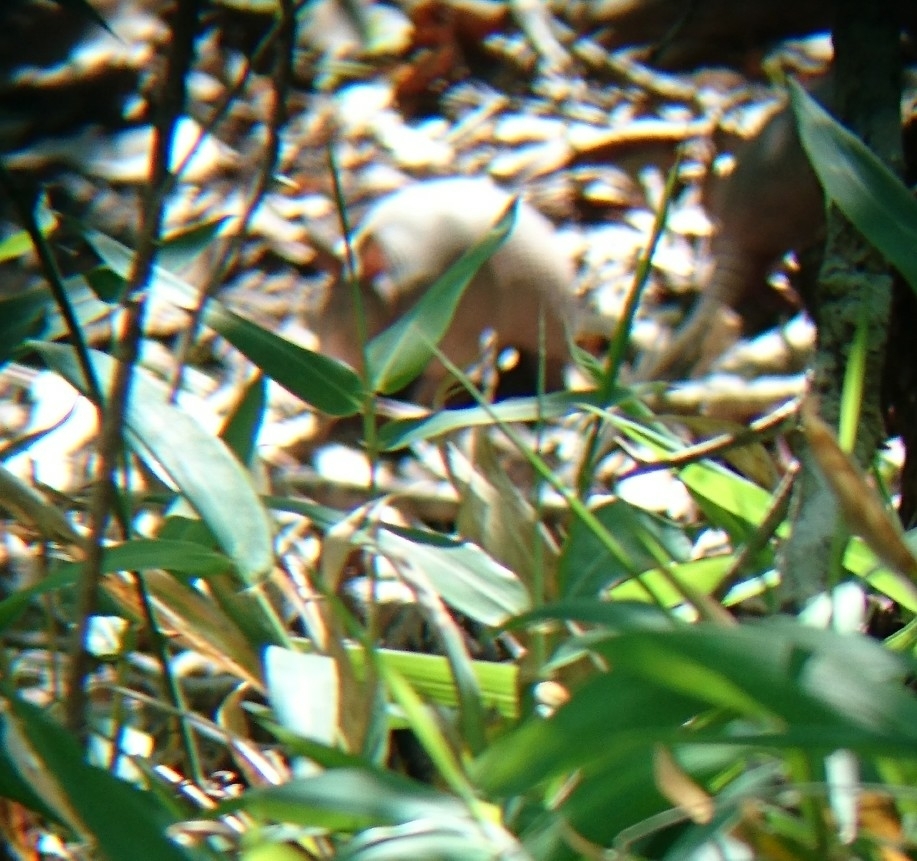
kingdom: Animalia
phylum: Chordata
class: Mammalia
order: Cingulata
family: Dasypodidae
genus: Dasypus
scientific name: Dasypus novemcinctus
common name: Nine-banded armadillo
